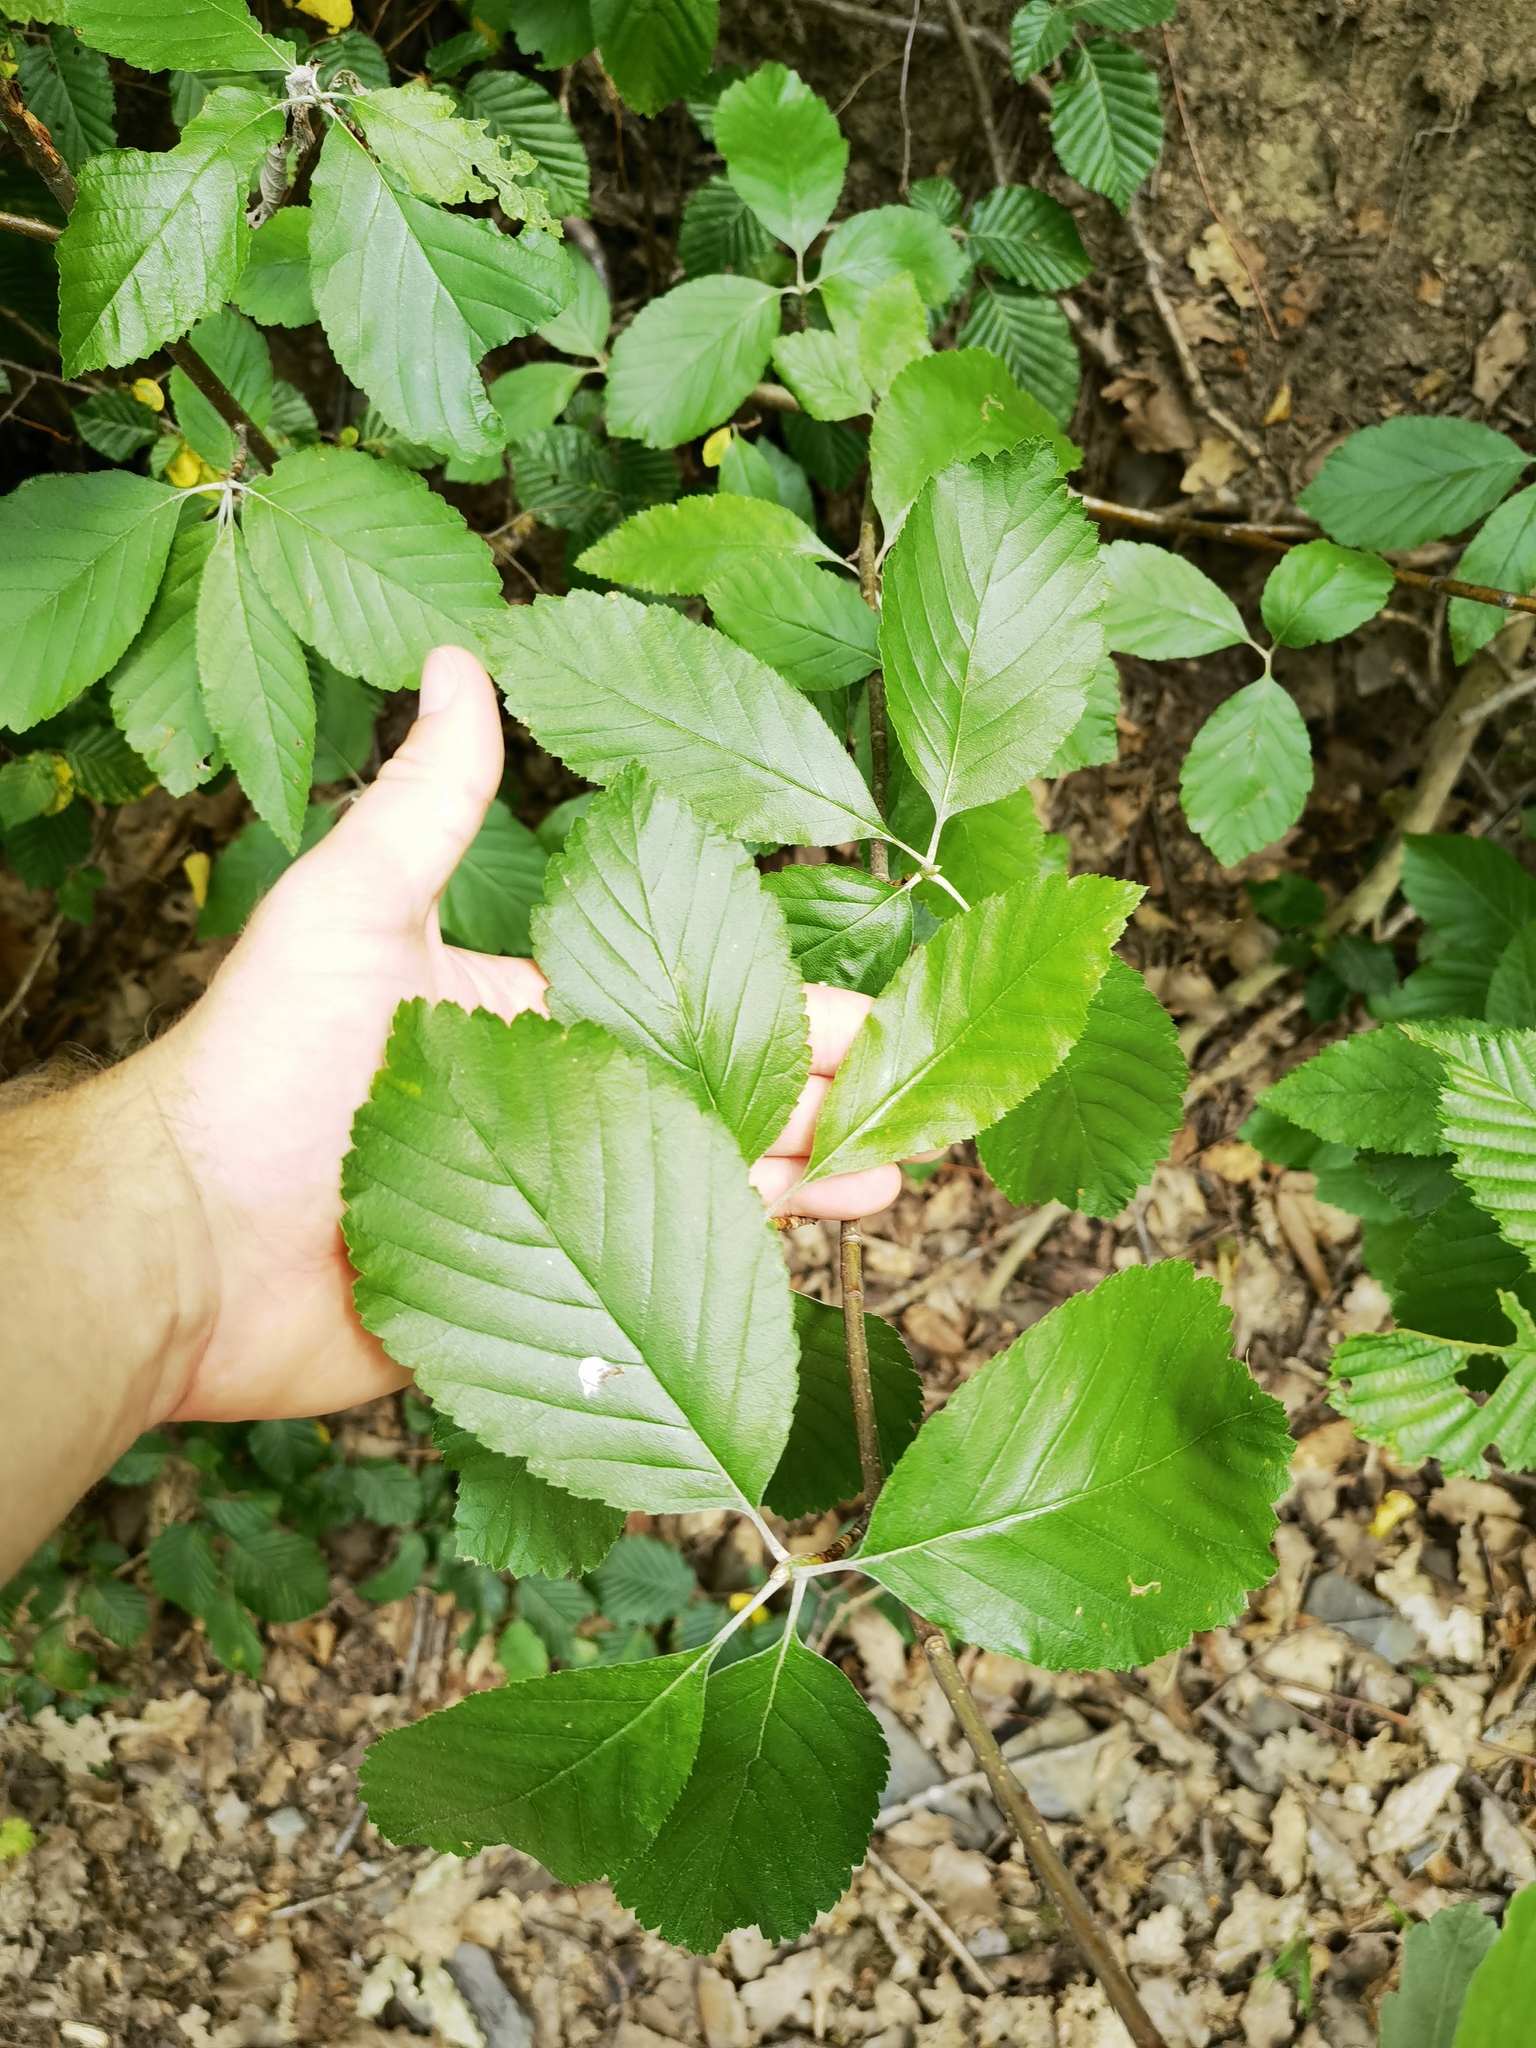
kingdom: Plantae
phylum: Tracheophyta
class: Magnoliopsida
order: Rosales
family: Rosaceae
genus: Aria
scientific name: Aria edulis
